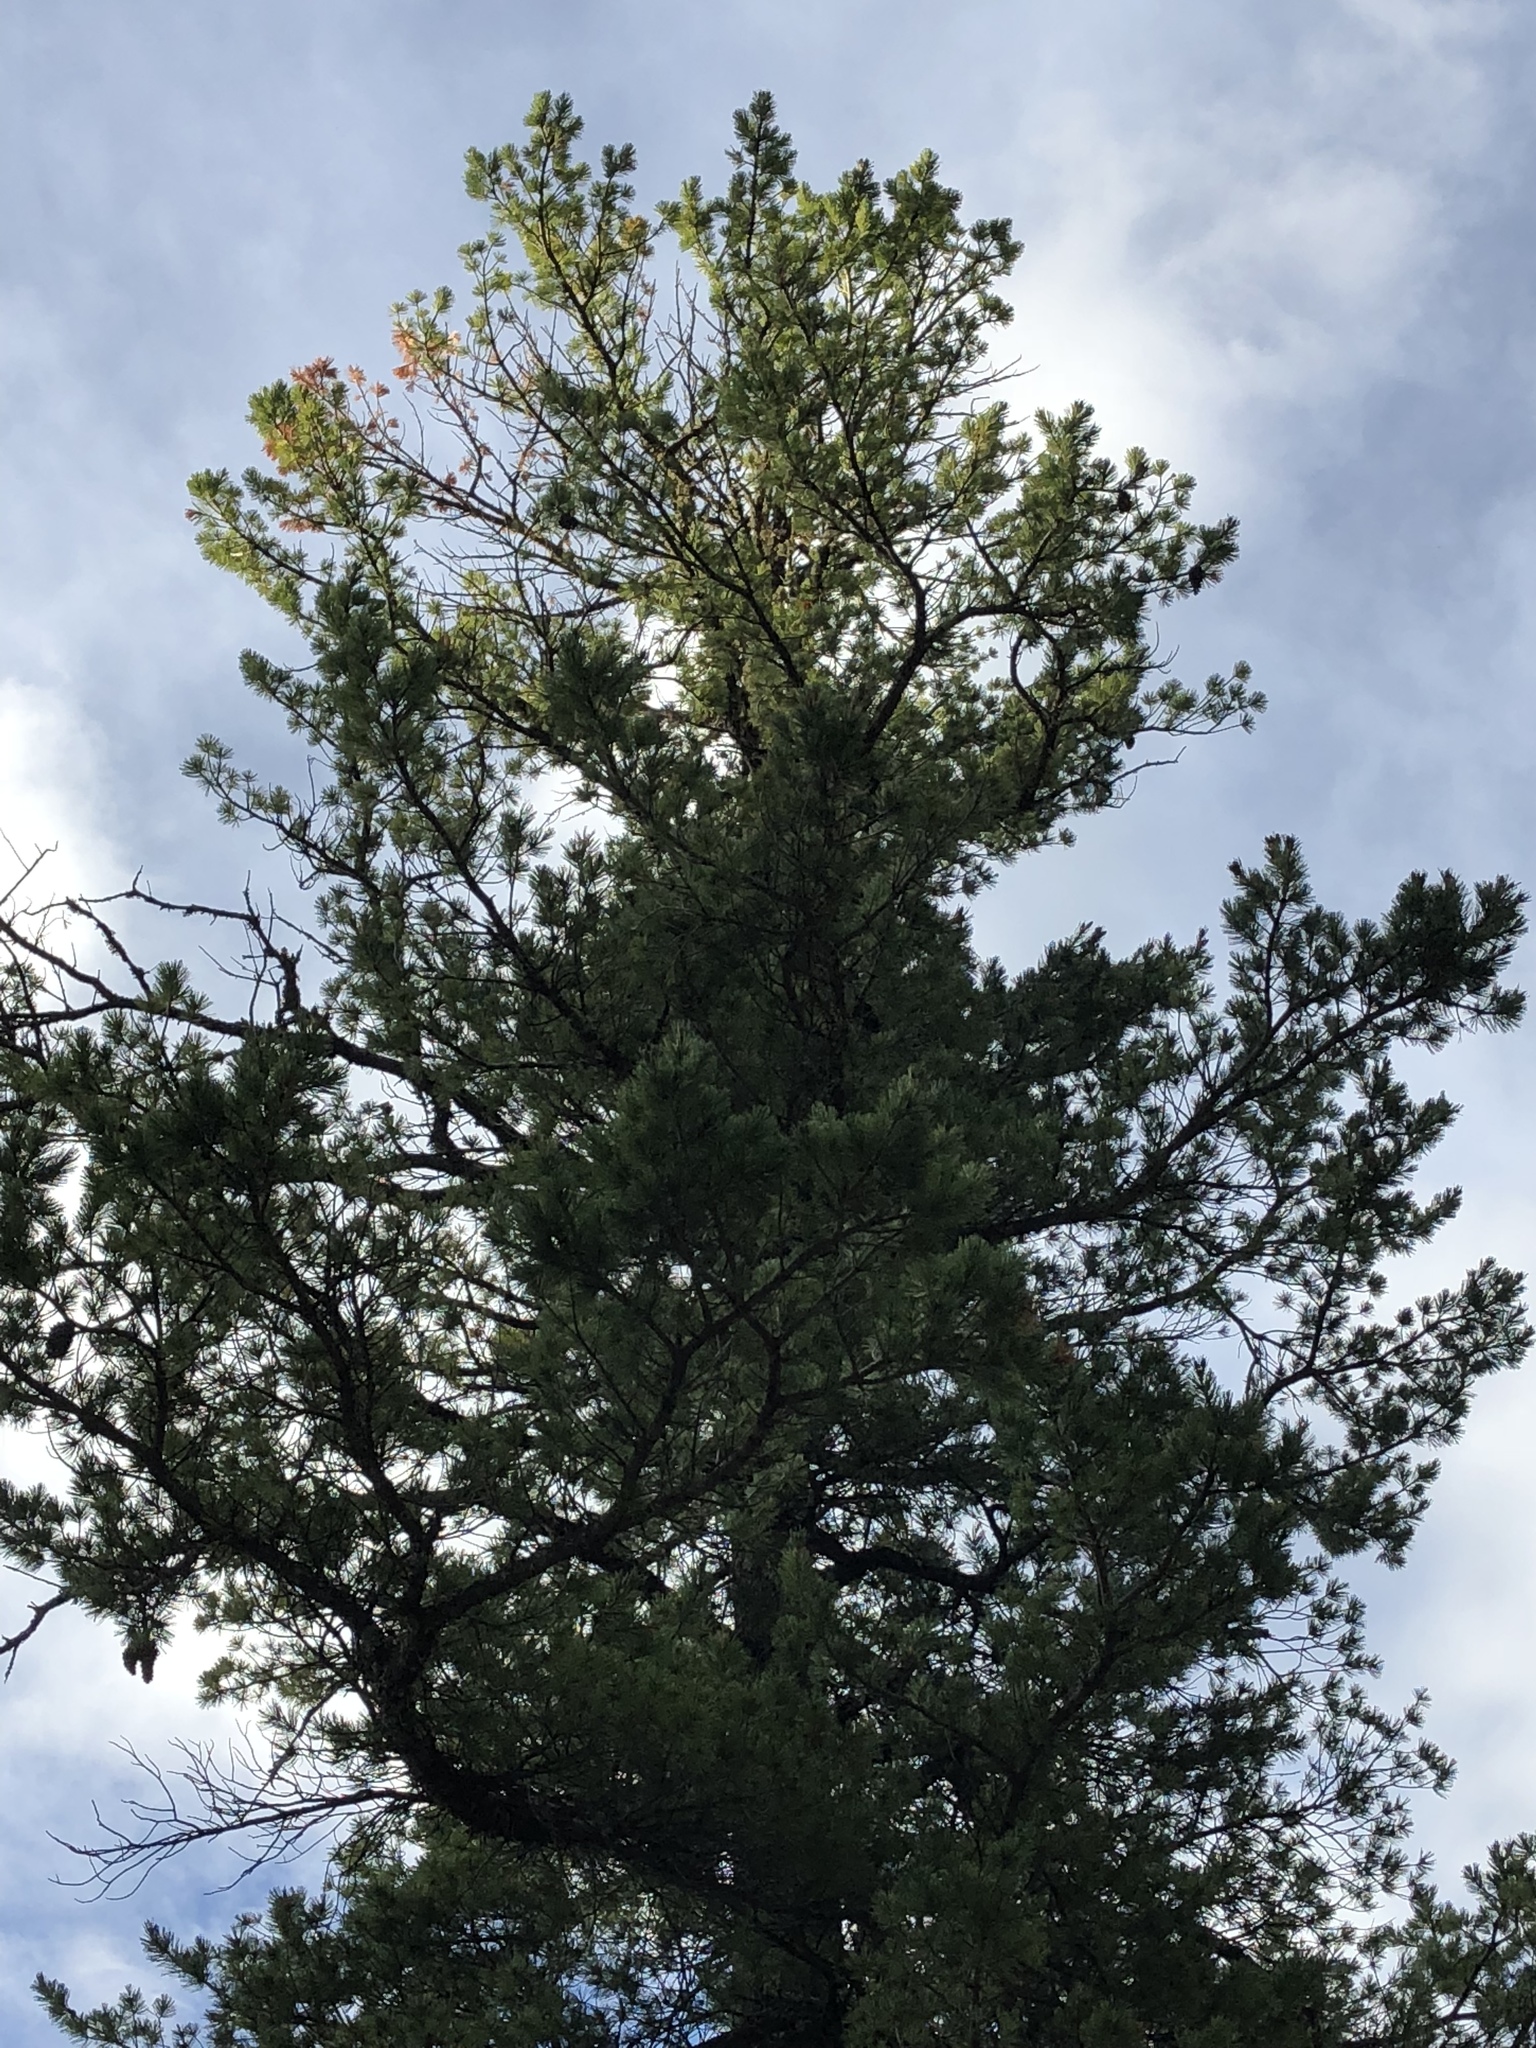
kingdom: Plantae
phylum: Tracheophyta
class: Pinopsida
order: Pinales
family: Pinaceae
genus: Pinus
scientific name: Pinus strobiformis
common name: Southwestern white pine
